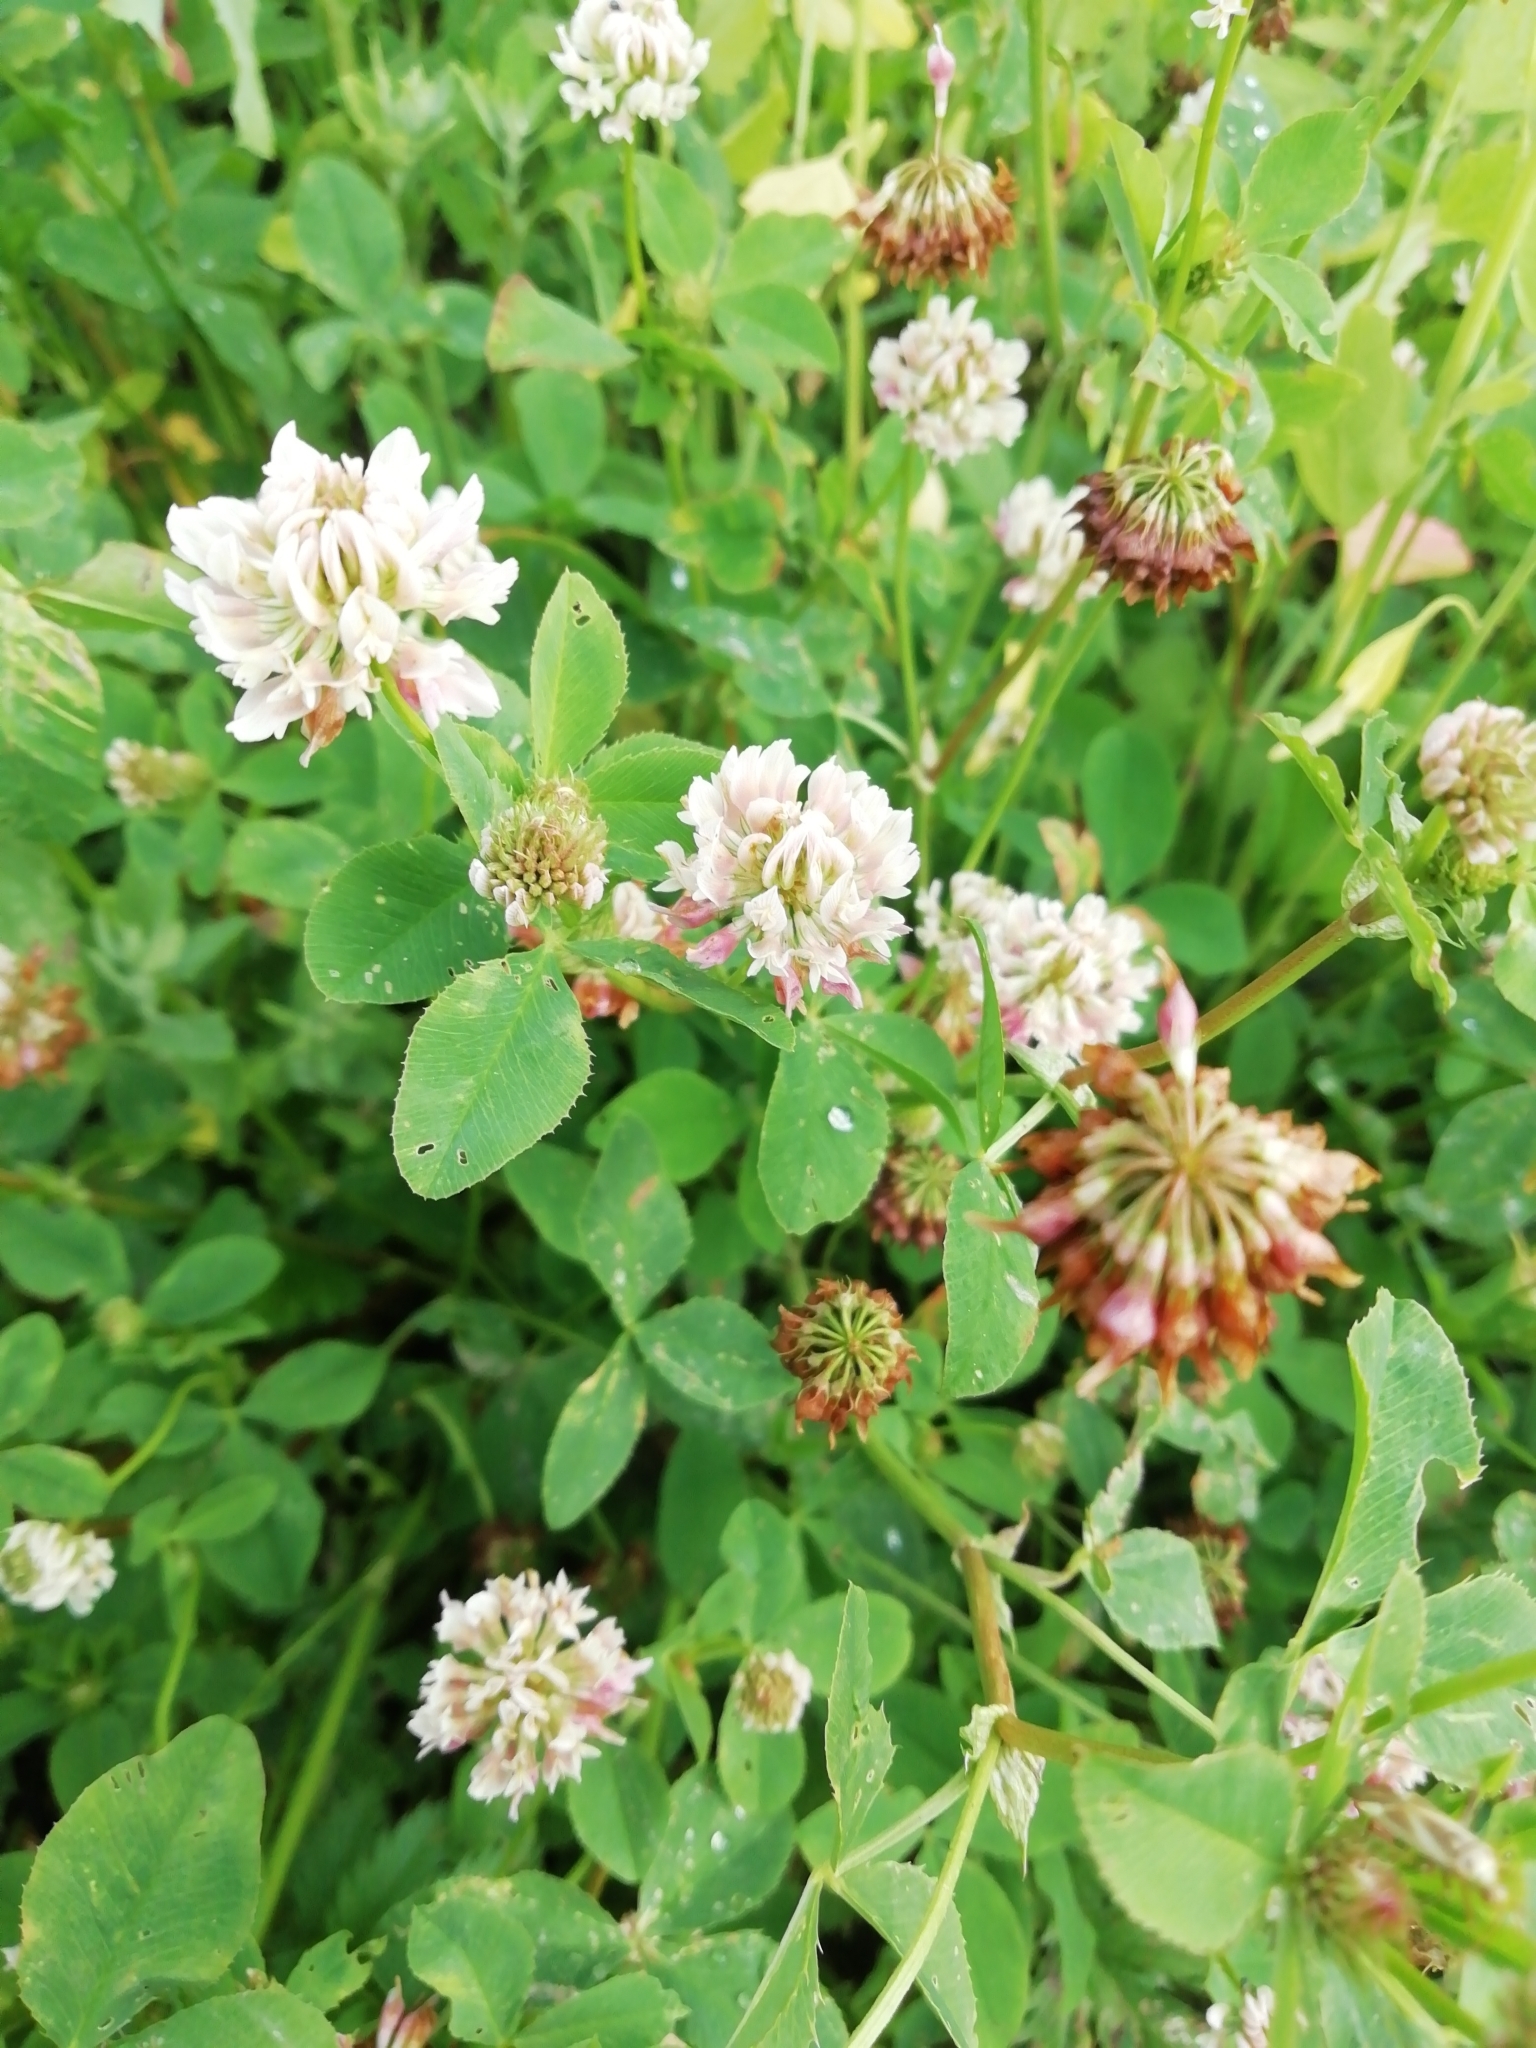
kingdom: Plantae
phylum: Tracheophyta
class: Magnoliopsida
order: Fabales
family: Fabaceae
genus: Trifolium
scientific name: Trifolium hybridum
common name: Alsike clover
